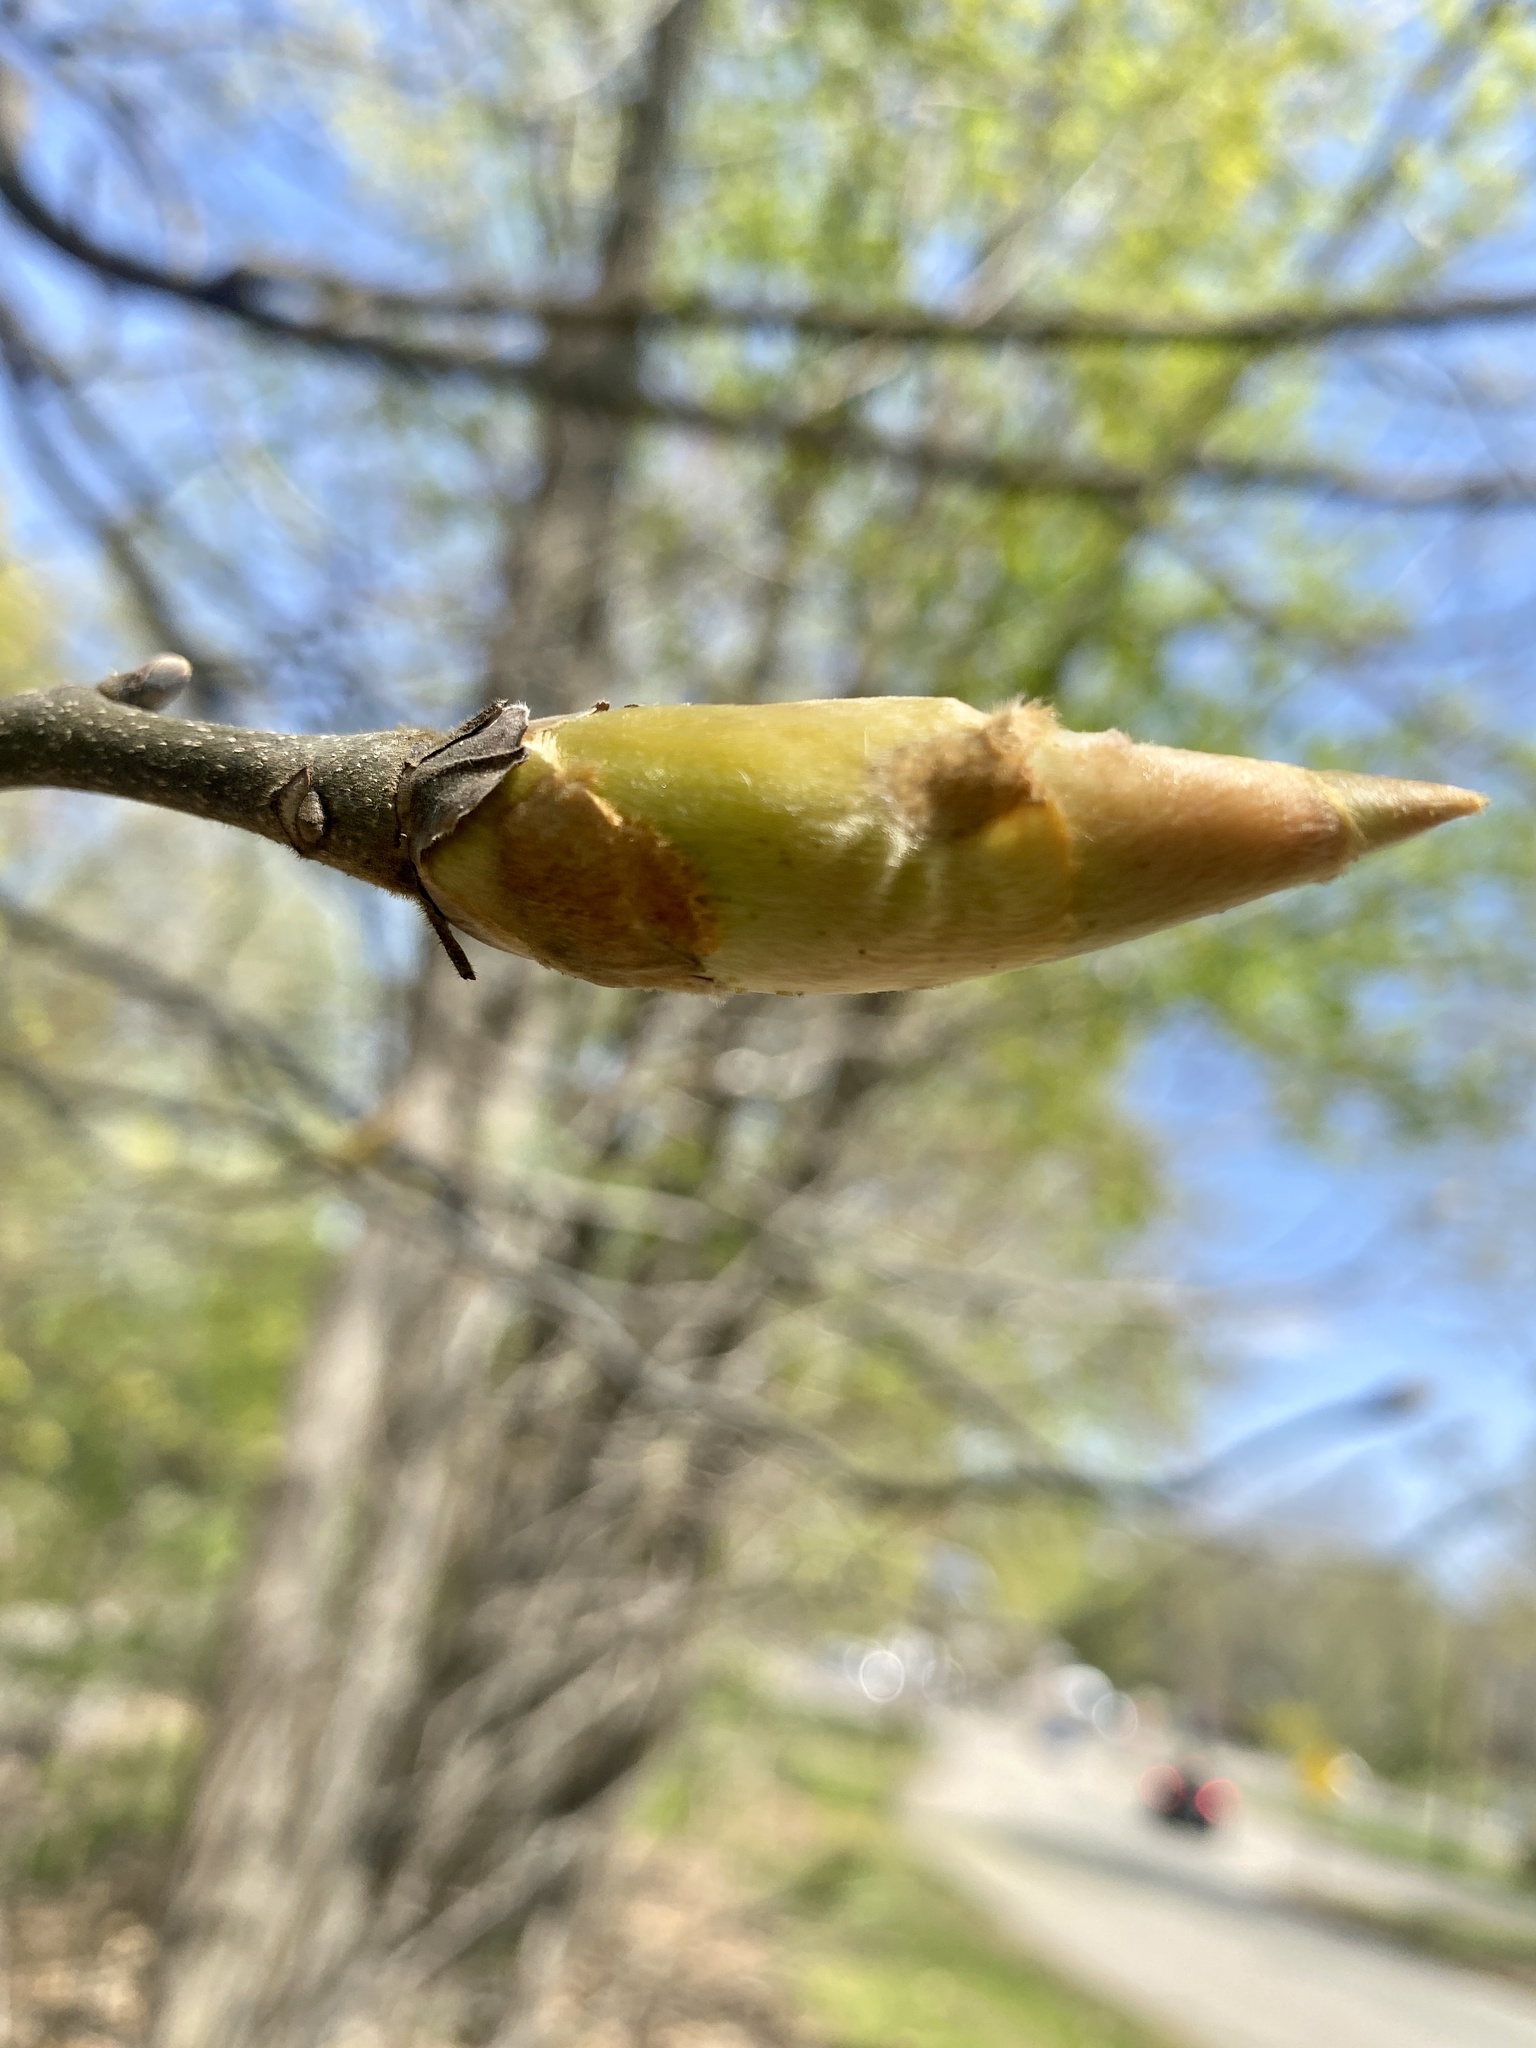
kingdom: Plantae
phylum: Tracheophyta
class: Magnoliopsida
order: Fagales
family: Juglandaceae
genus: Carya
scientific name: Carya ovata
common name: Shagbark hickory
